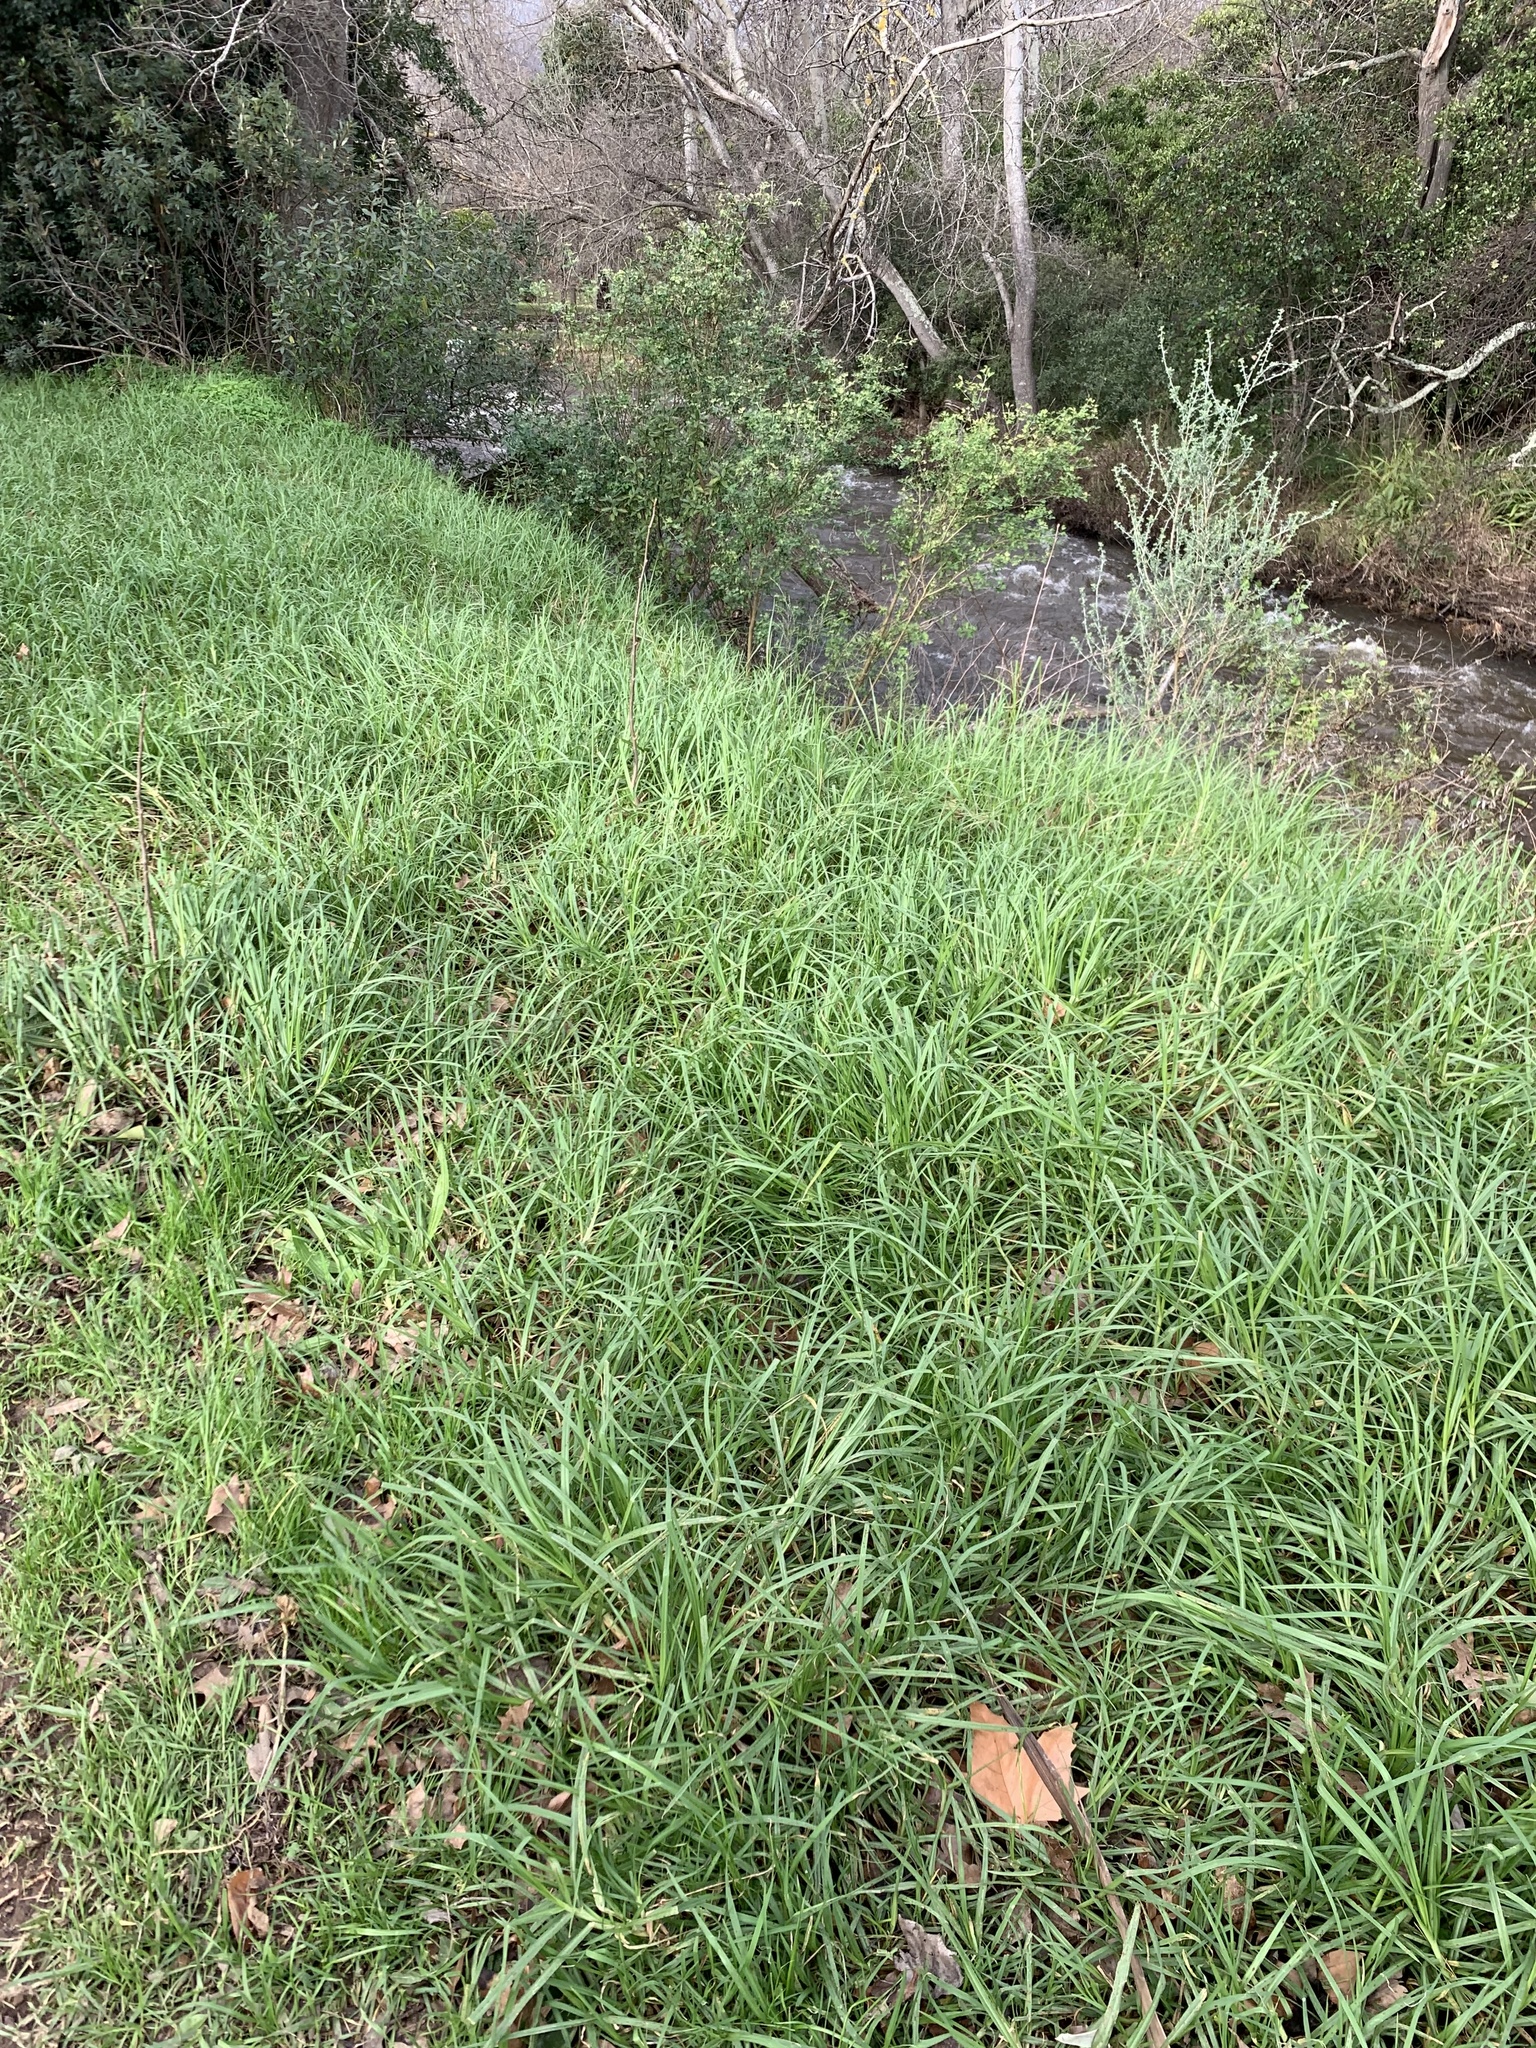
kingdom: Plantae
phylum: Tracheophyta
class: Liliopsida
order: Poales
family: Poaceae
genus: Cenchrus
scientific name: Cenchrus clandestinus
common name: Kikuyugrass
